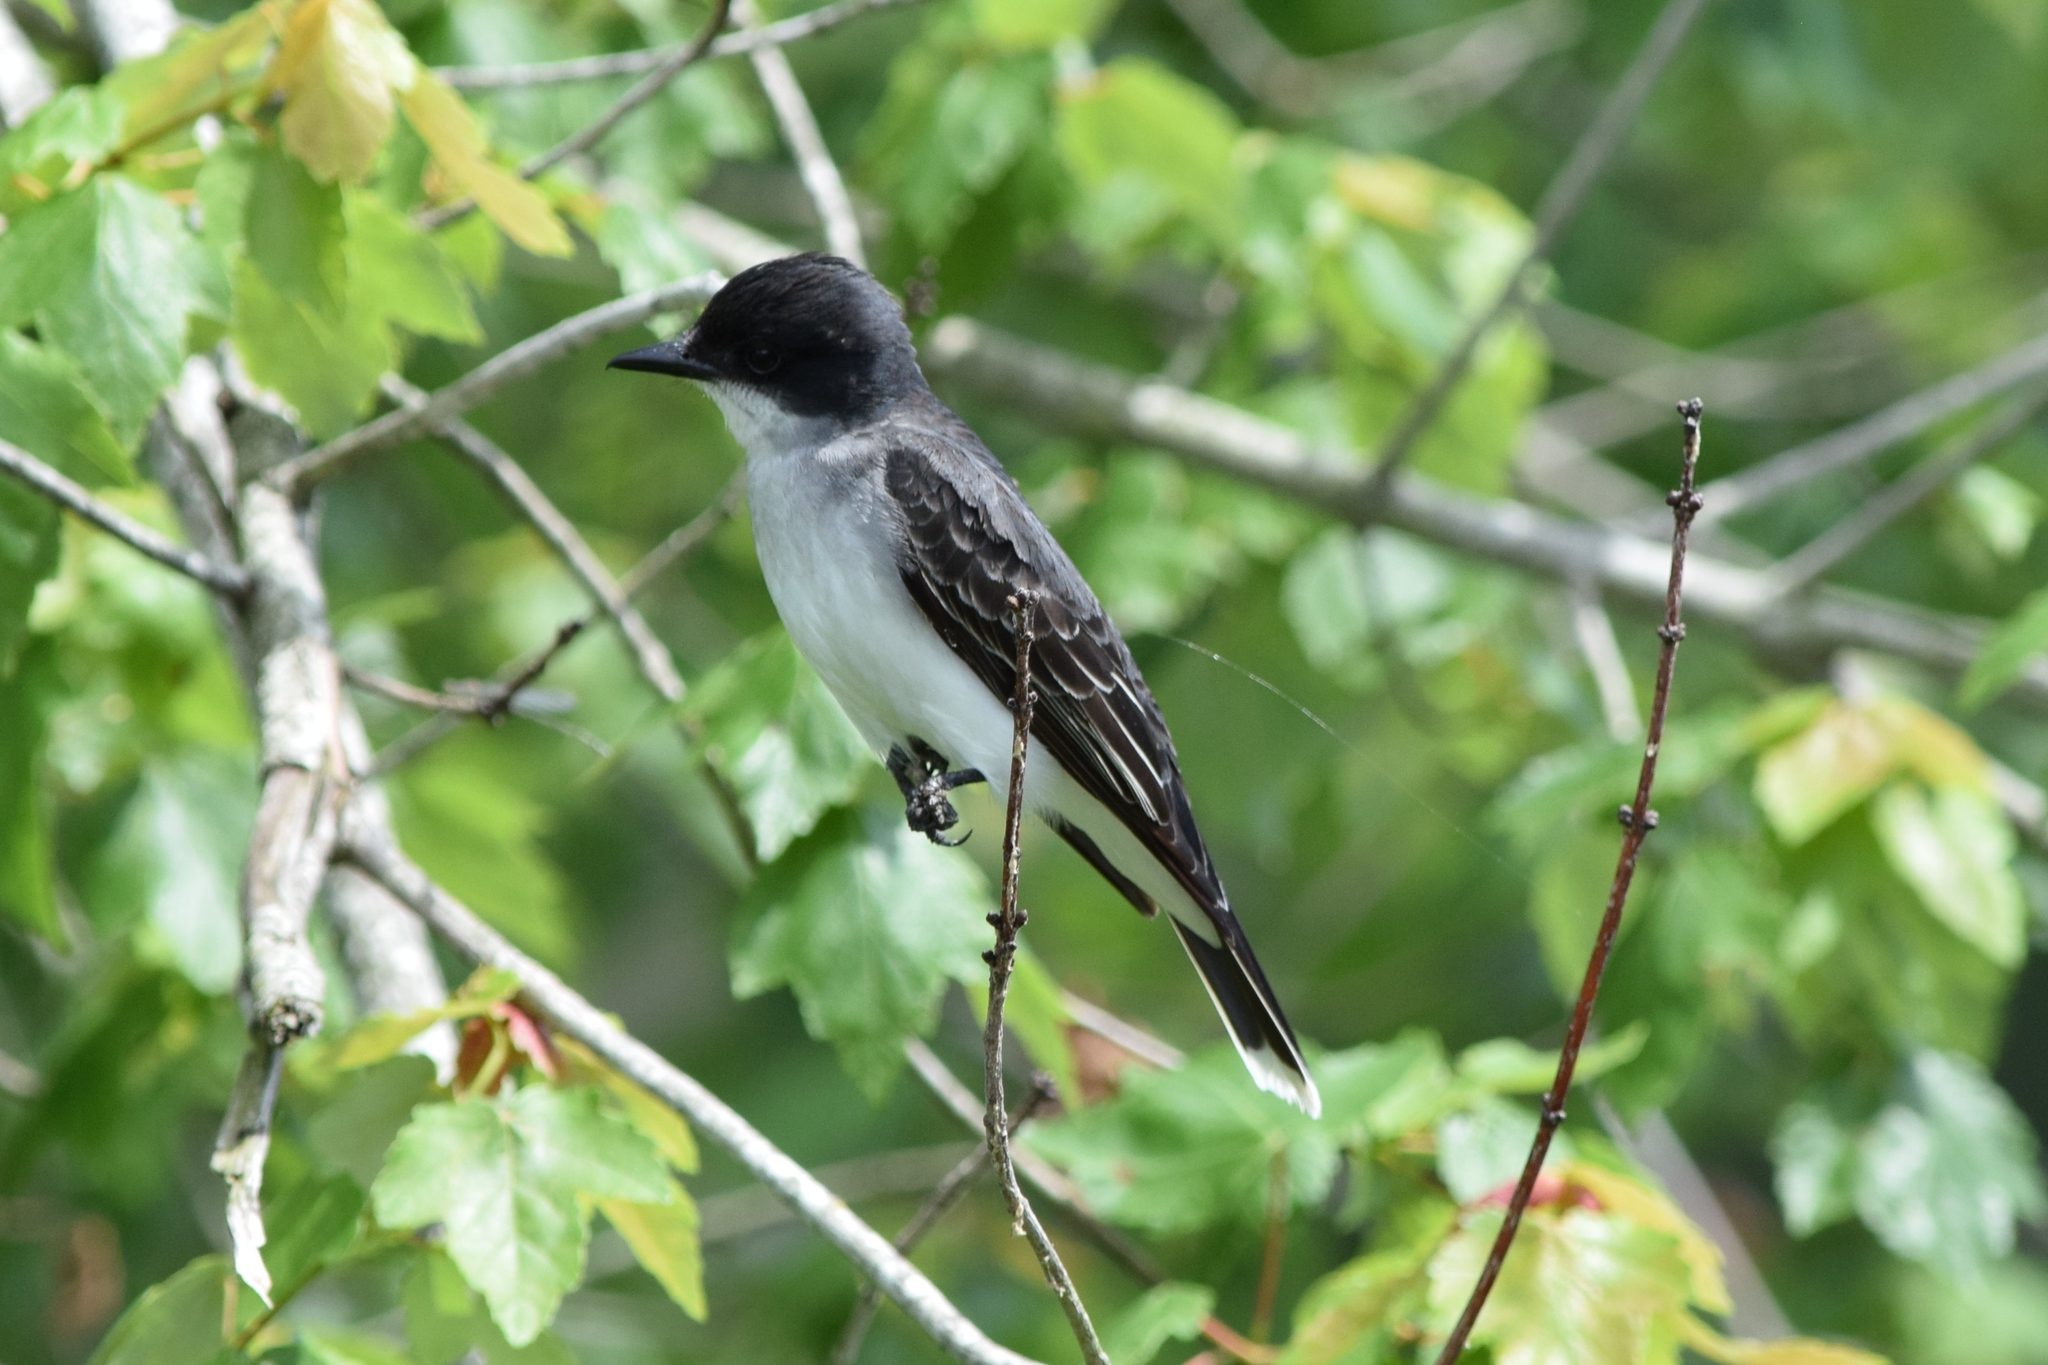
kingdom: Animalia
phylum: Chordata
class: Aves
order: Passeriformes
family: Tyrannidae
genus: Tyrannus
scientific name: Tyrannus tyrannus
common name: Eastern kingbird
